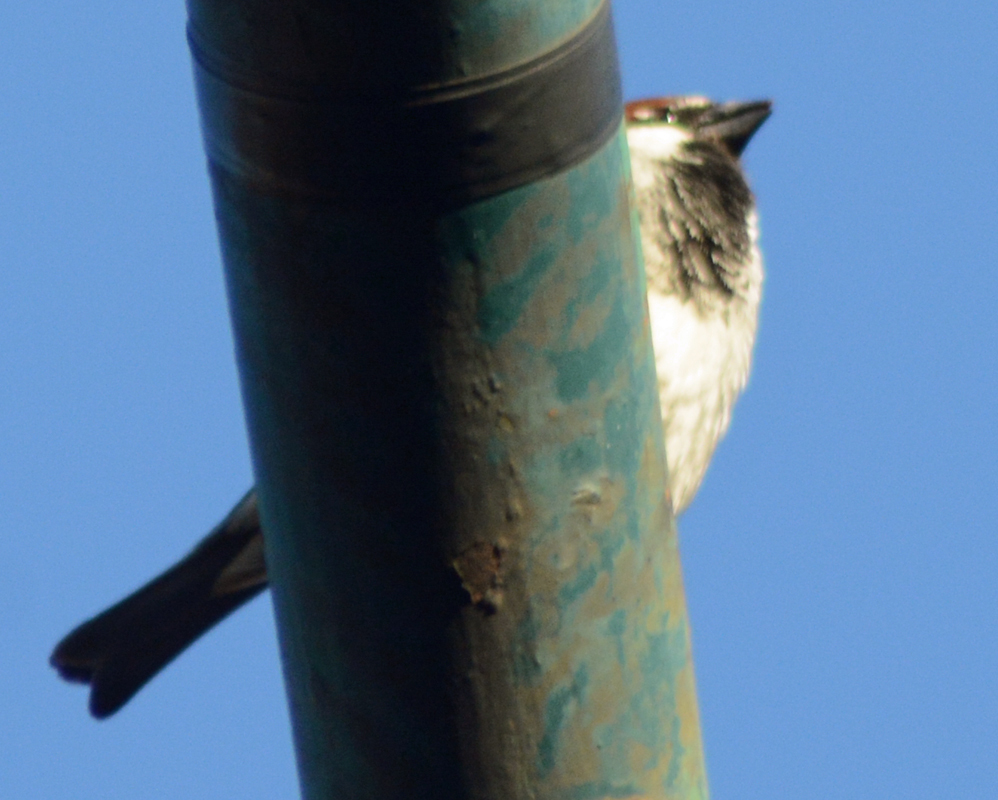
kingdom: Animalia
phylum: Chordata
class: Aves
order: Passeriformes
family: Passeridae
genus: Passer
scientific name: Passer domesticus
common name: House sparrow
